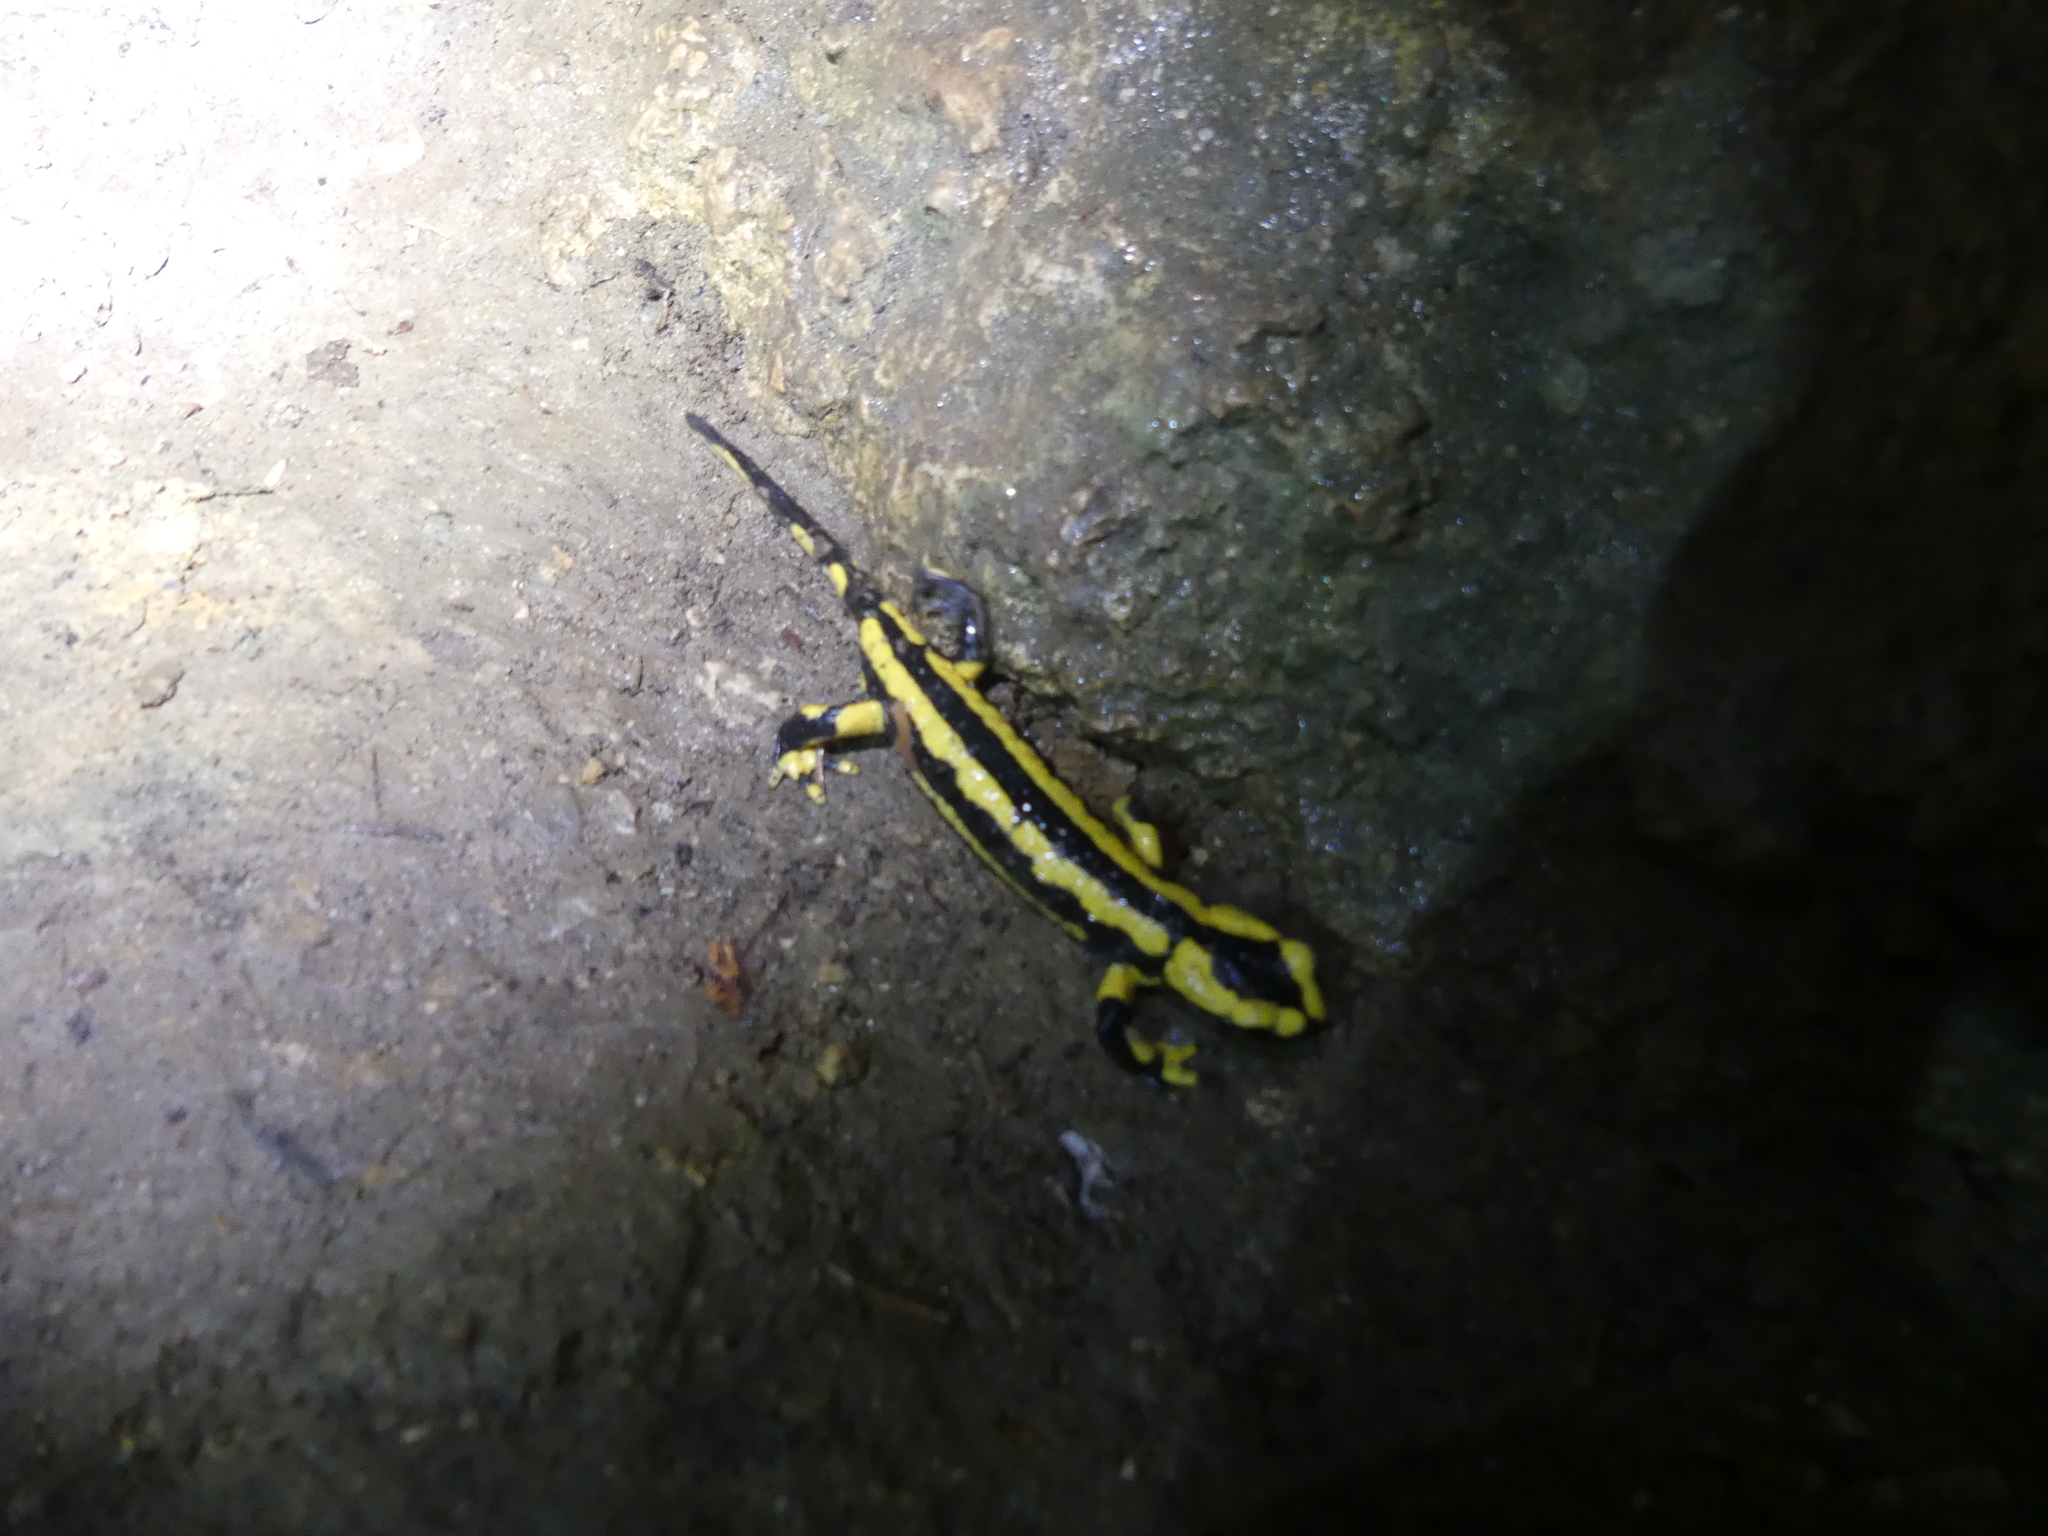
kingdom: Animalia
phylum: Chordata
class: Amphibia
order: Caudata
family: Salamandridae
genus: Salamandra
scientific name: Salamandra salamandra
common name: Fire salamander
